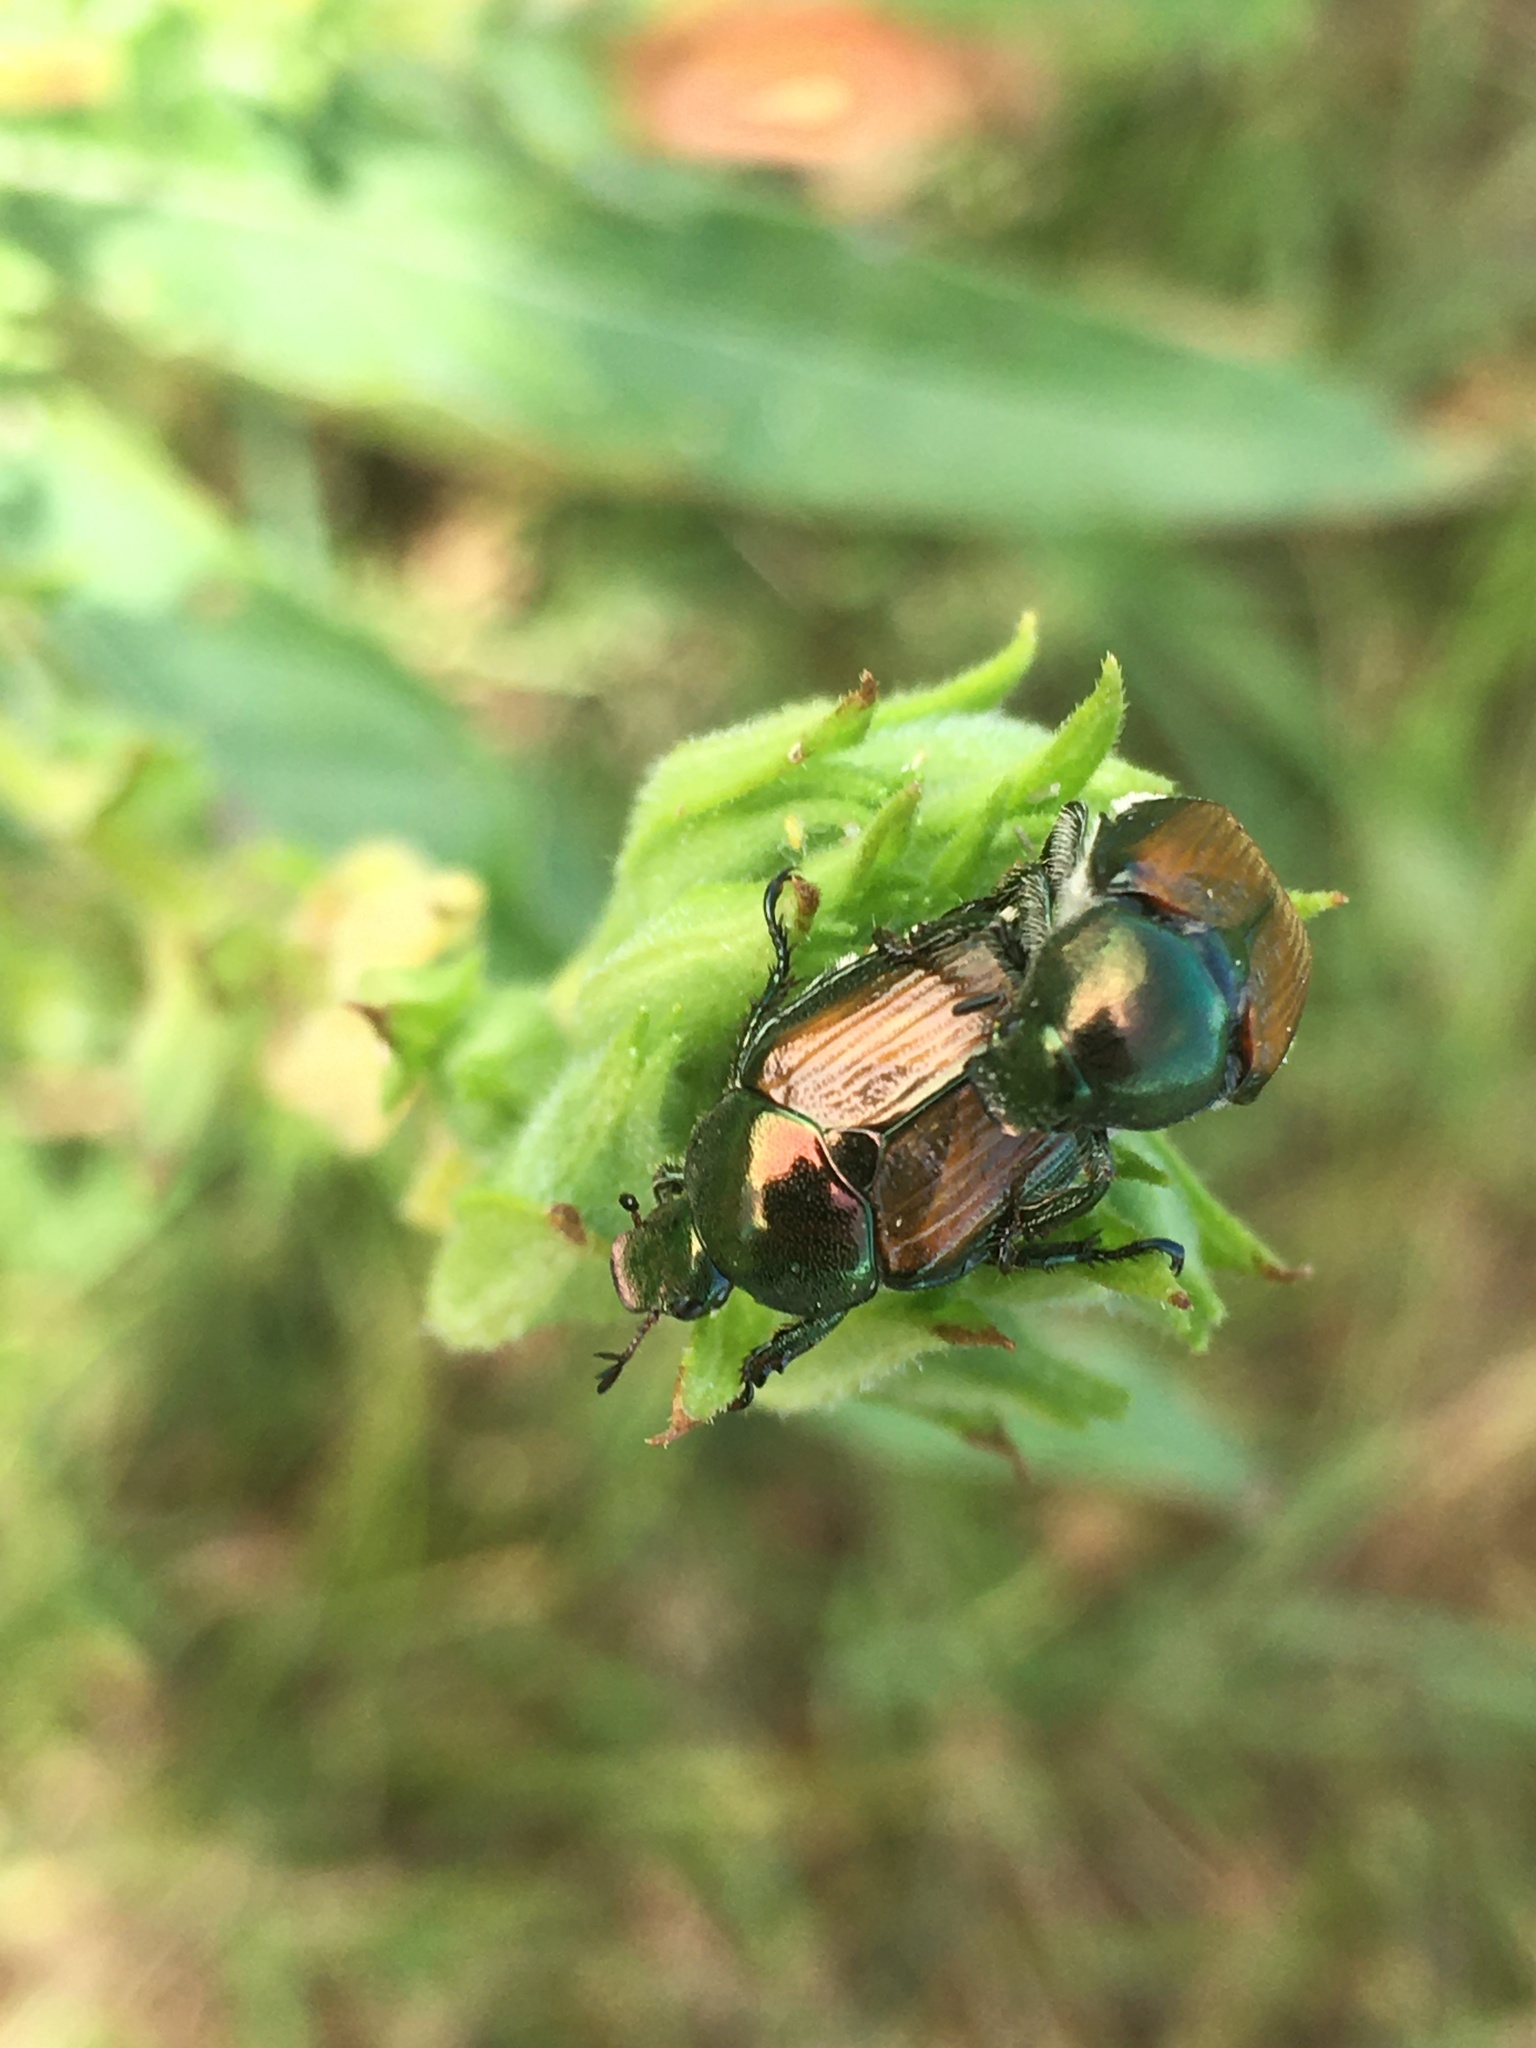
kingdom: Animalia
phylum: Arthropoda
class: Insecta
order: Coleoptera
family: Scarabaeidae
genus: Popillia
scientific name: Popillia japonica
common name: Japanese beetle
